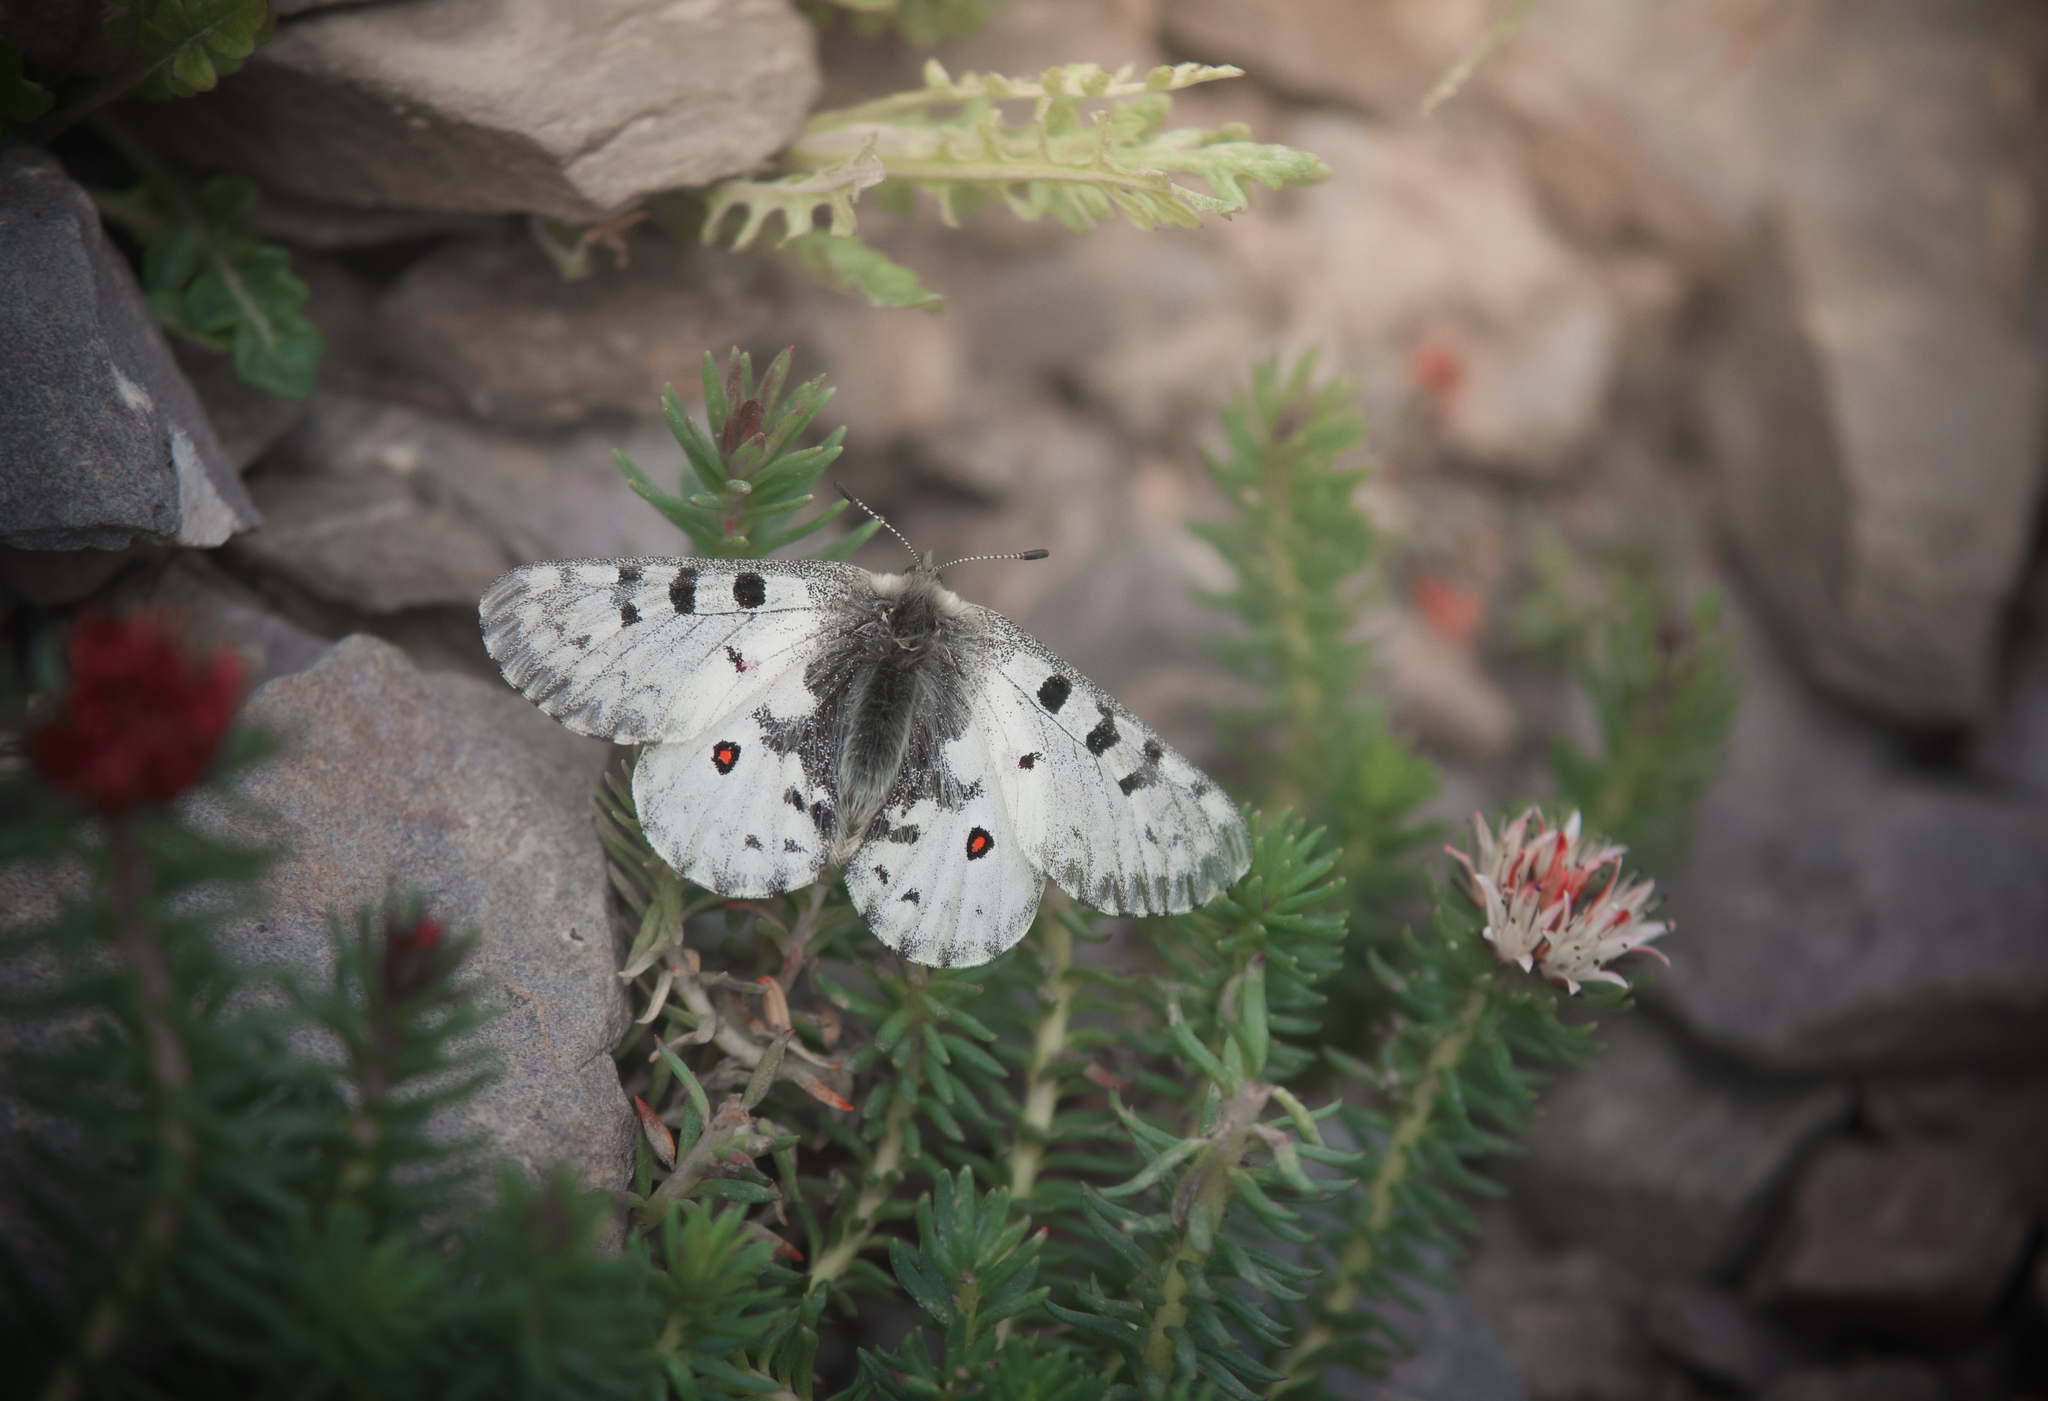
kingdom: Animalia
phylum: Arthropoda
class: Insecta
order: Lepidoptera
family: Papilionidae
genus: Parnassius
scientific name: Parnassius jacquemontii
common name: Keeled apollo
